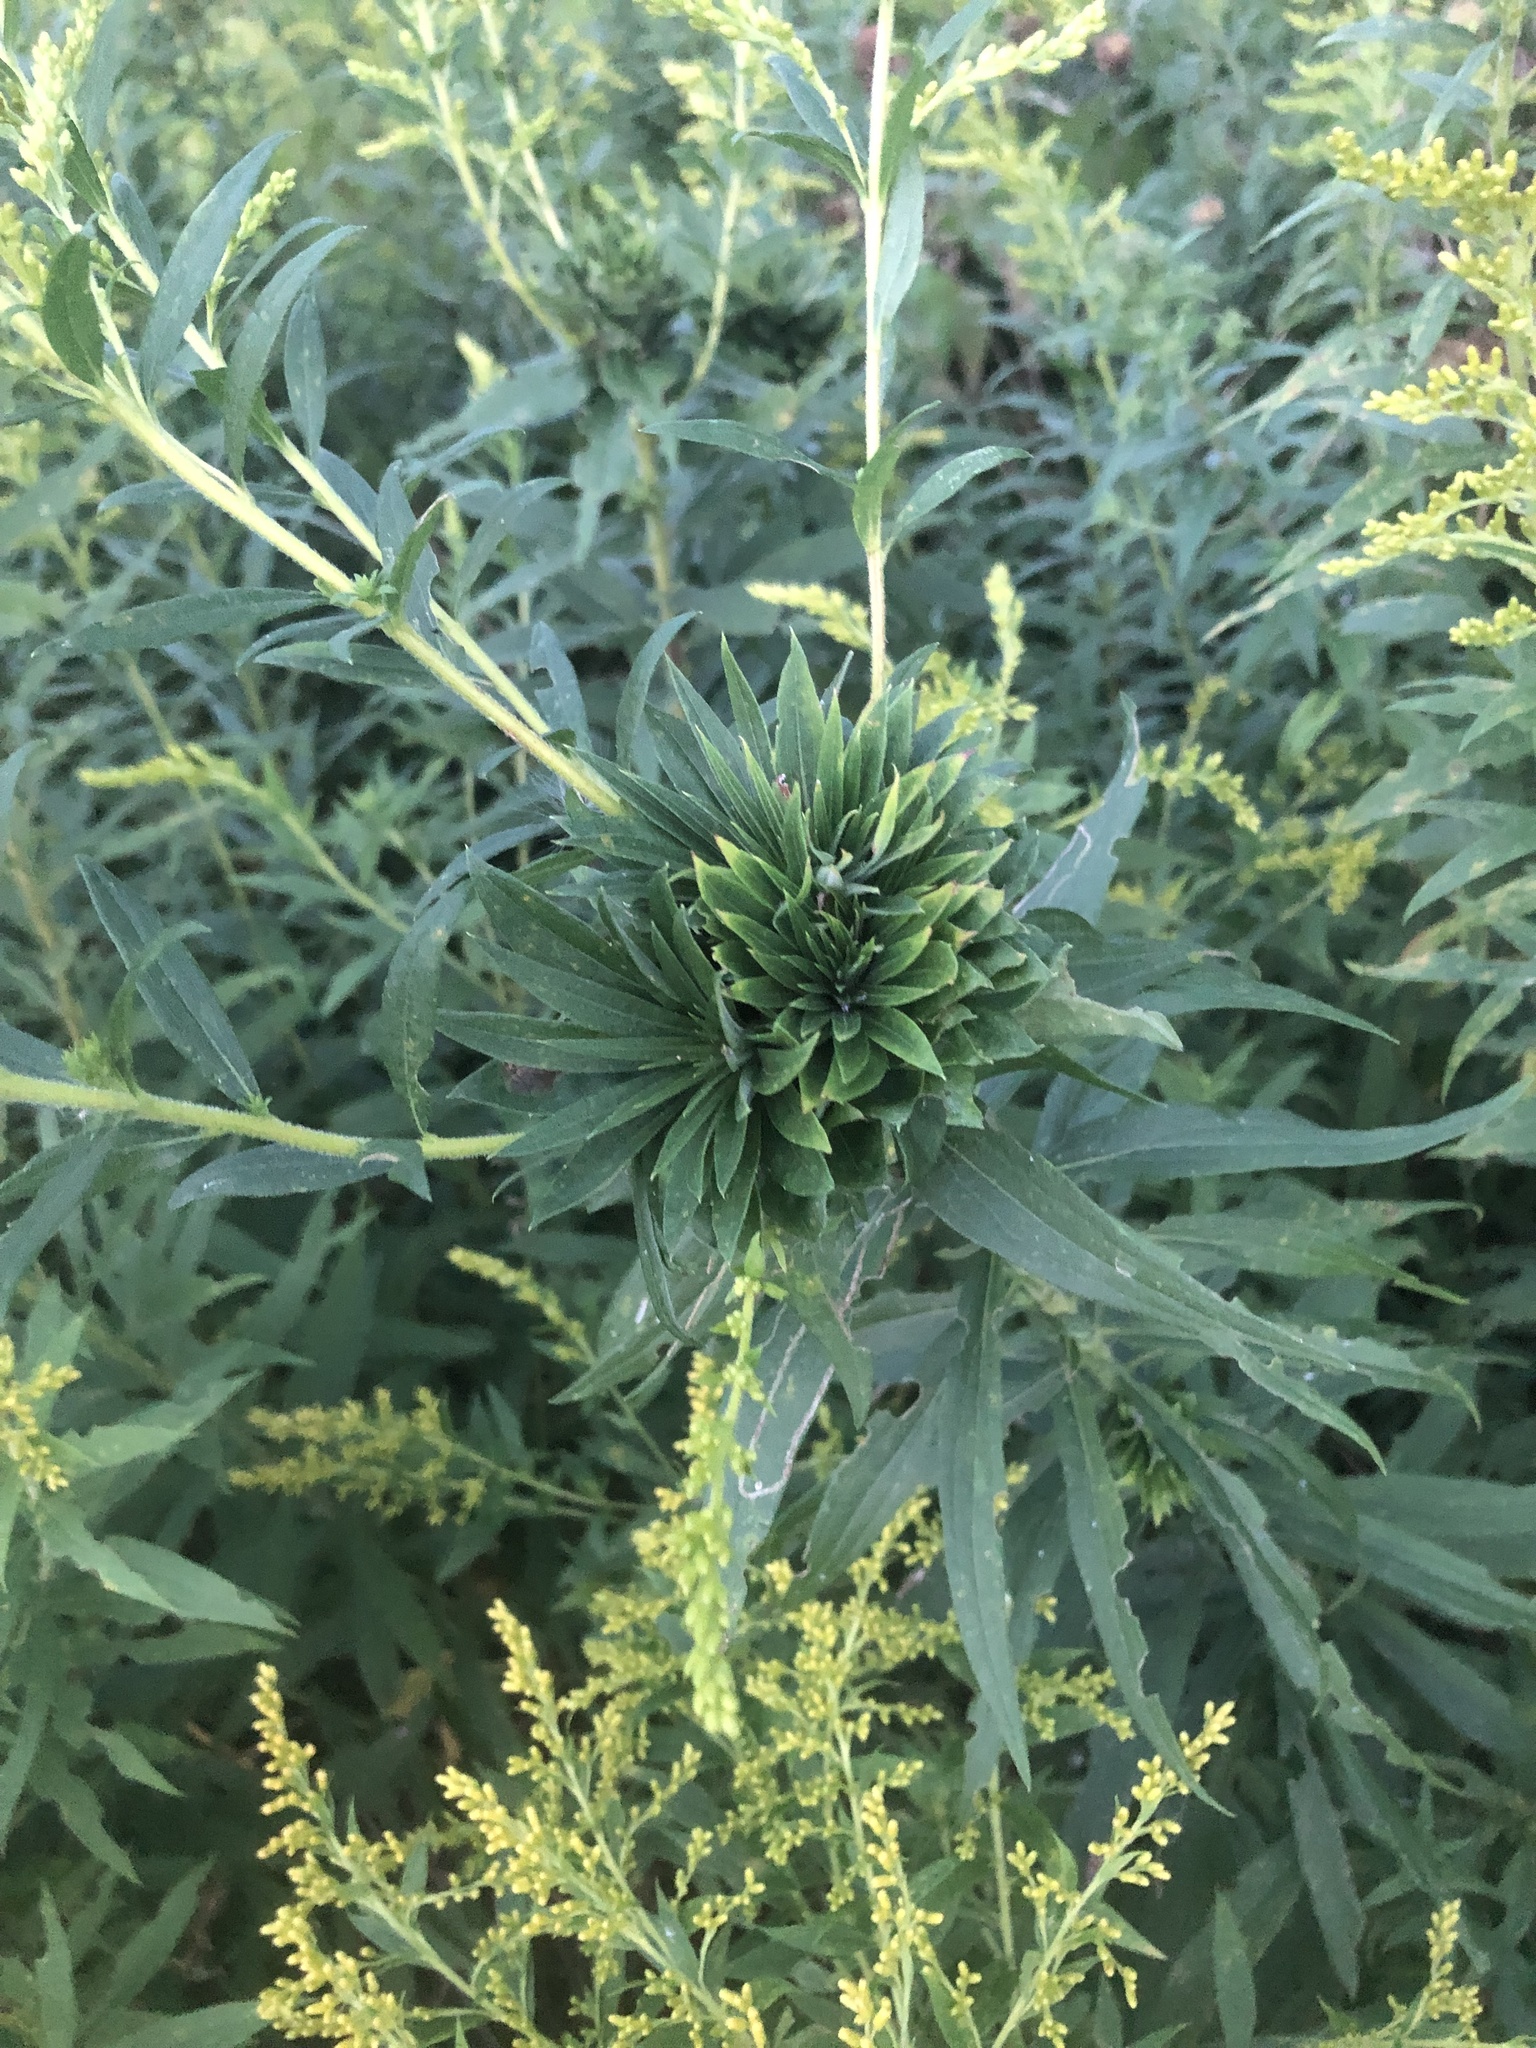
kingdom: Animalia
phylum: Arthropoda
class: Insecta
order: Diptera
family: Cecidomyiidae
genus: Rhopalomyia
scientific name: Rhopalomyia solidaginis
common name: Goldenrod bunch gall midge
